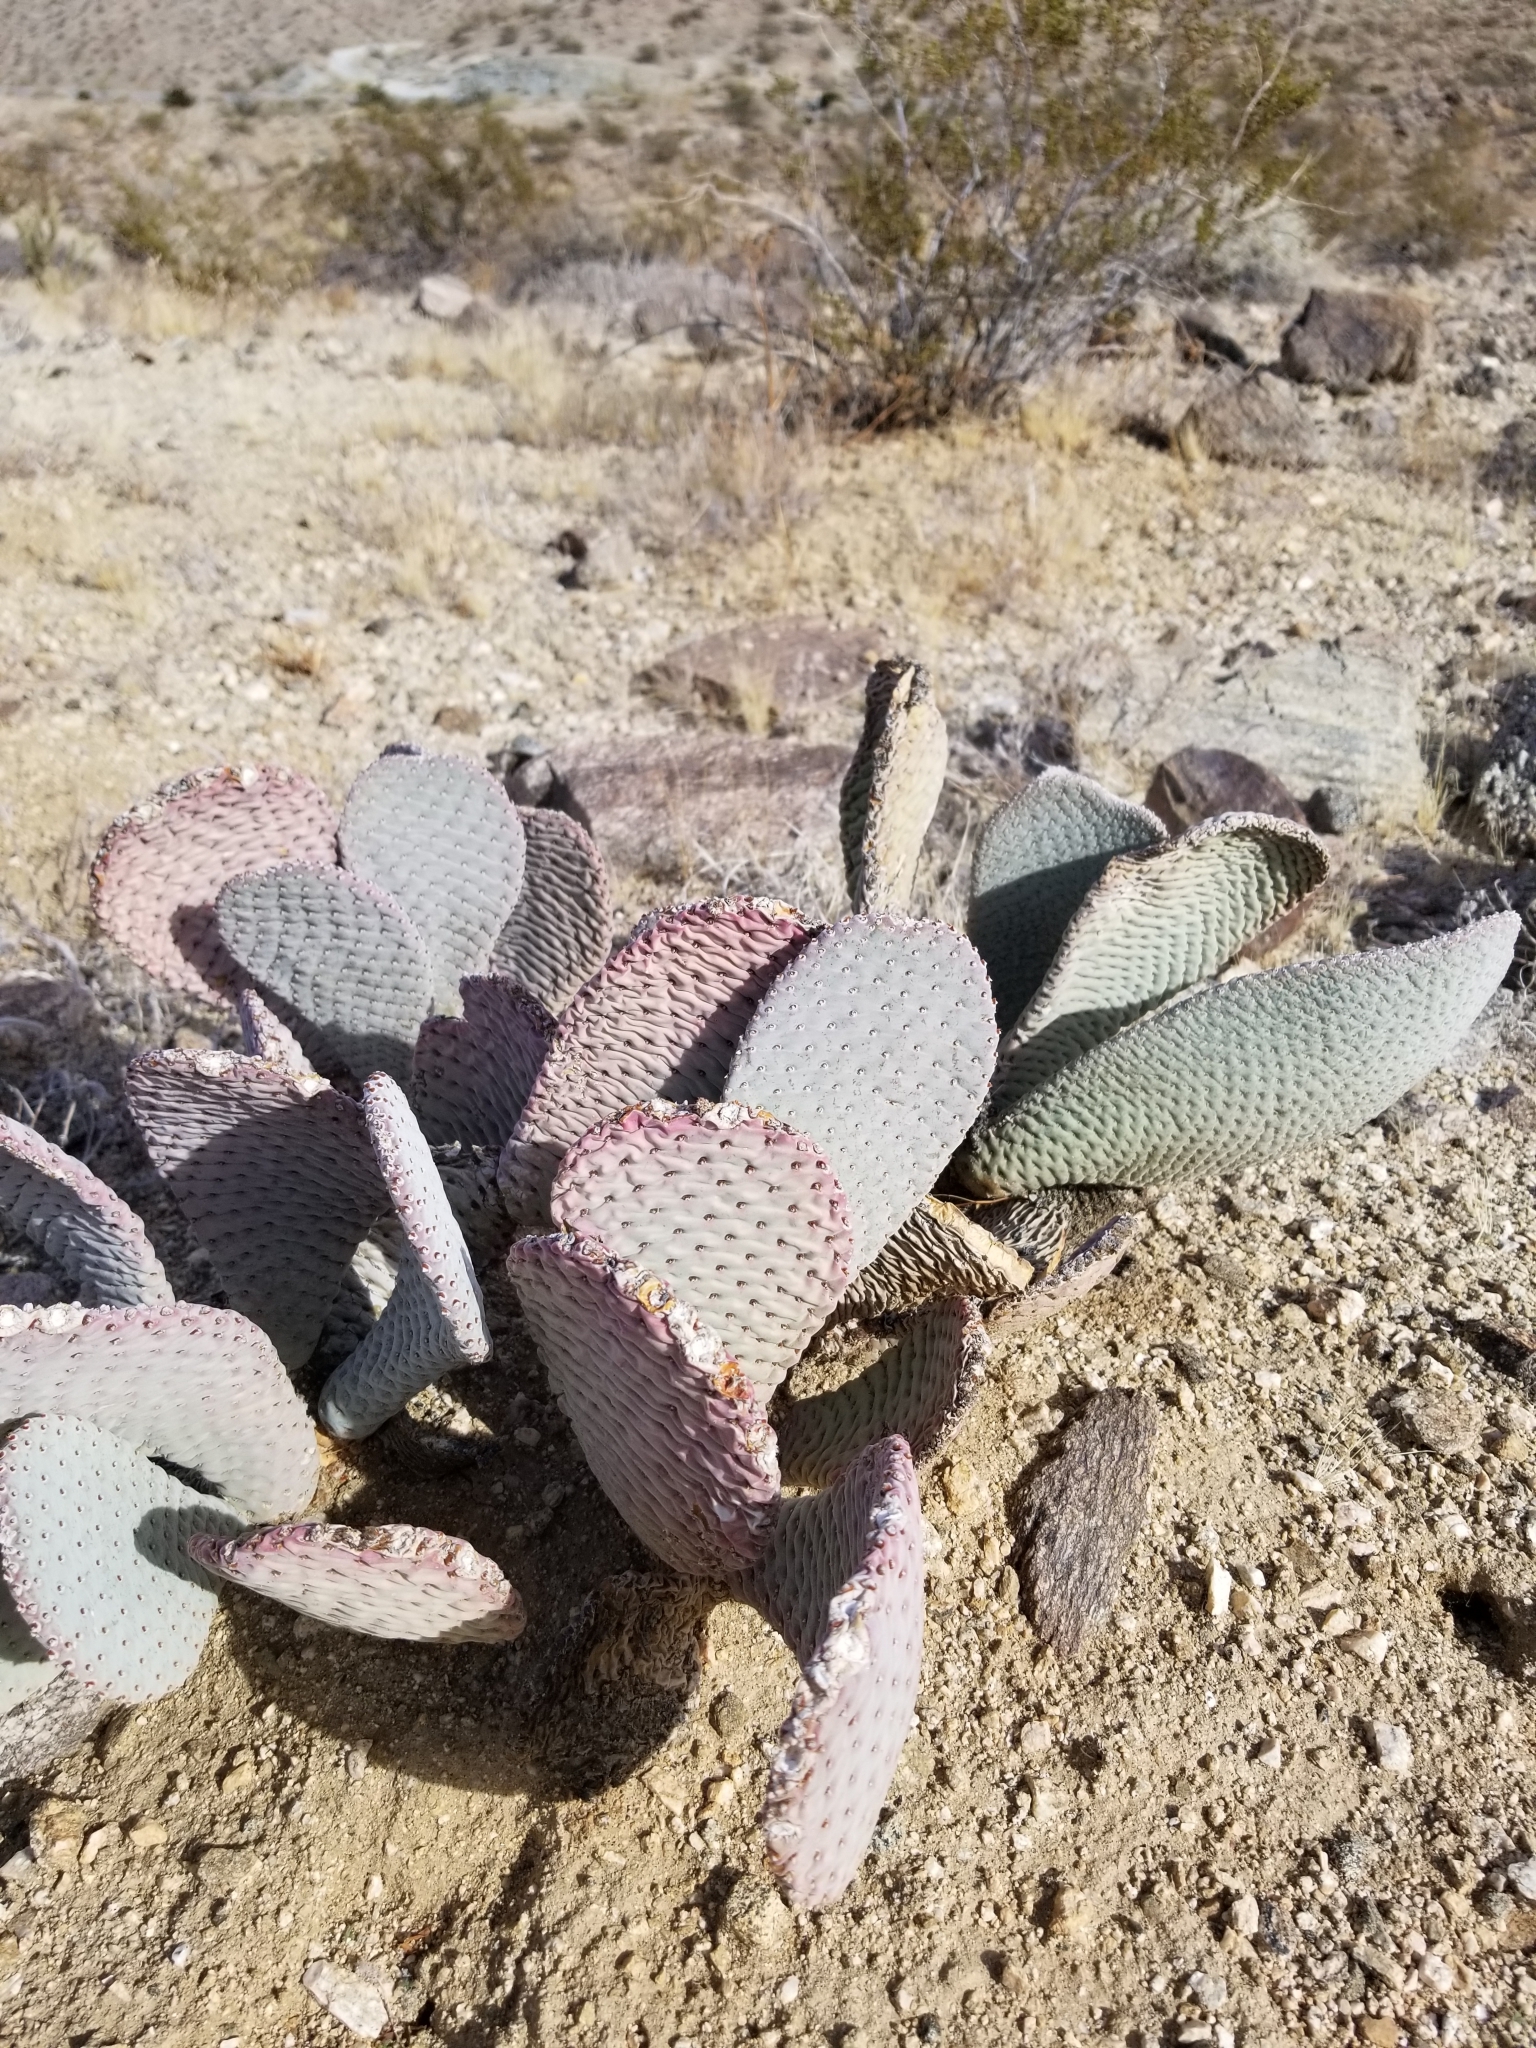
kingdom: Plantae
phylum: Tracheophyta
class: Magnoliopsida
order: Caryophyllales
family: Cactaceae
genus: Opuntia
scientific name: Opuntia basilaris
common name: Beavertail prickly-pear
